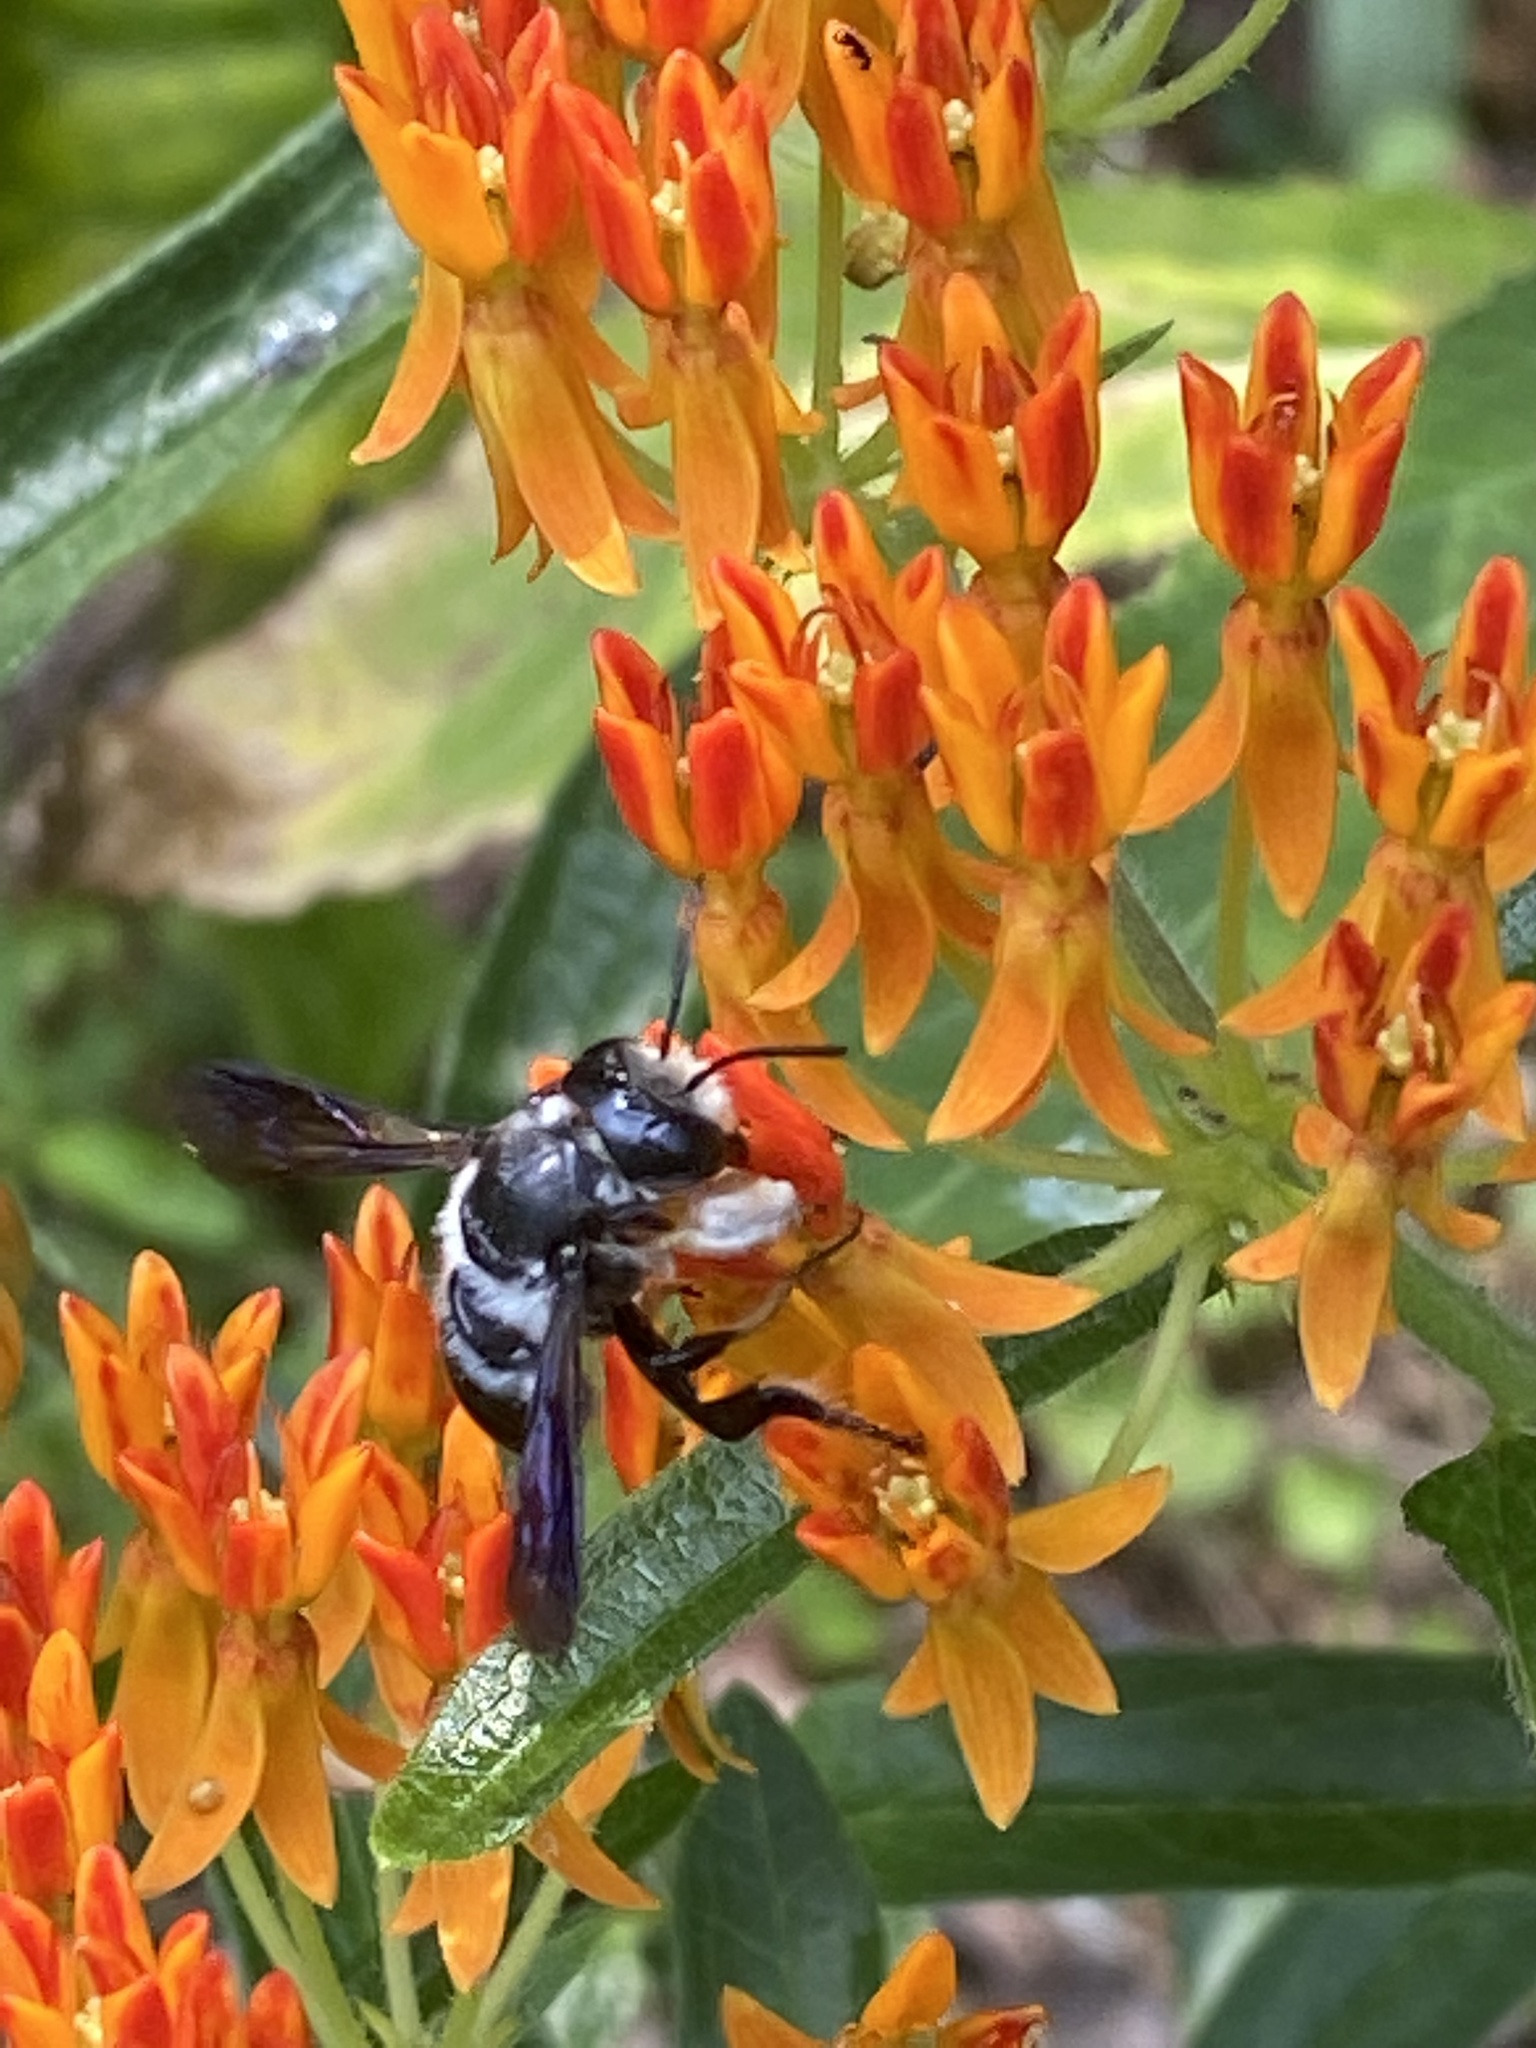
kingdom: Animalia
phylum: Arthropoda
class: Insecta
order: Hymenoptera
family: Megachilidae
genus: Megachile
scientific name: Megachile xylocopoides
